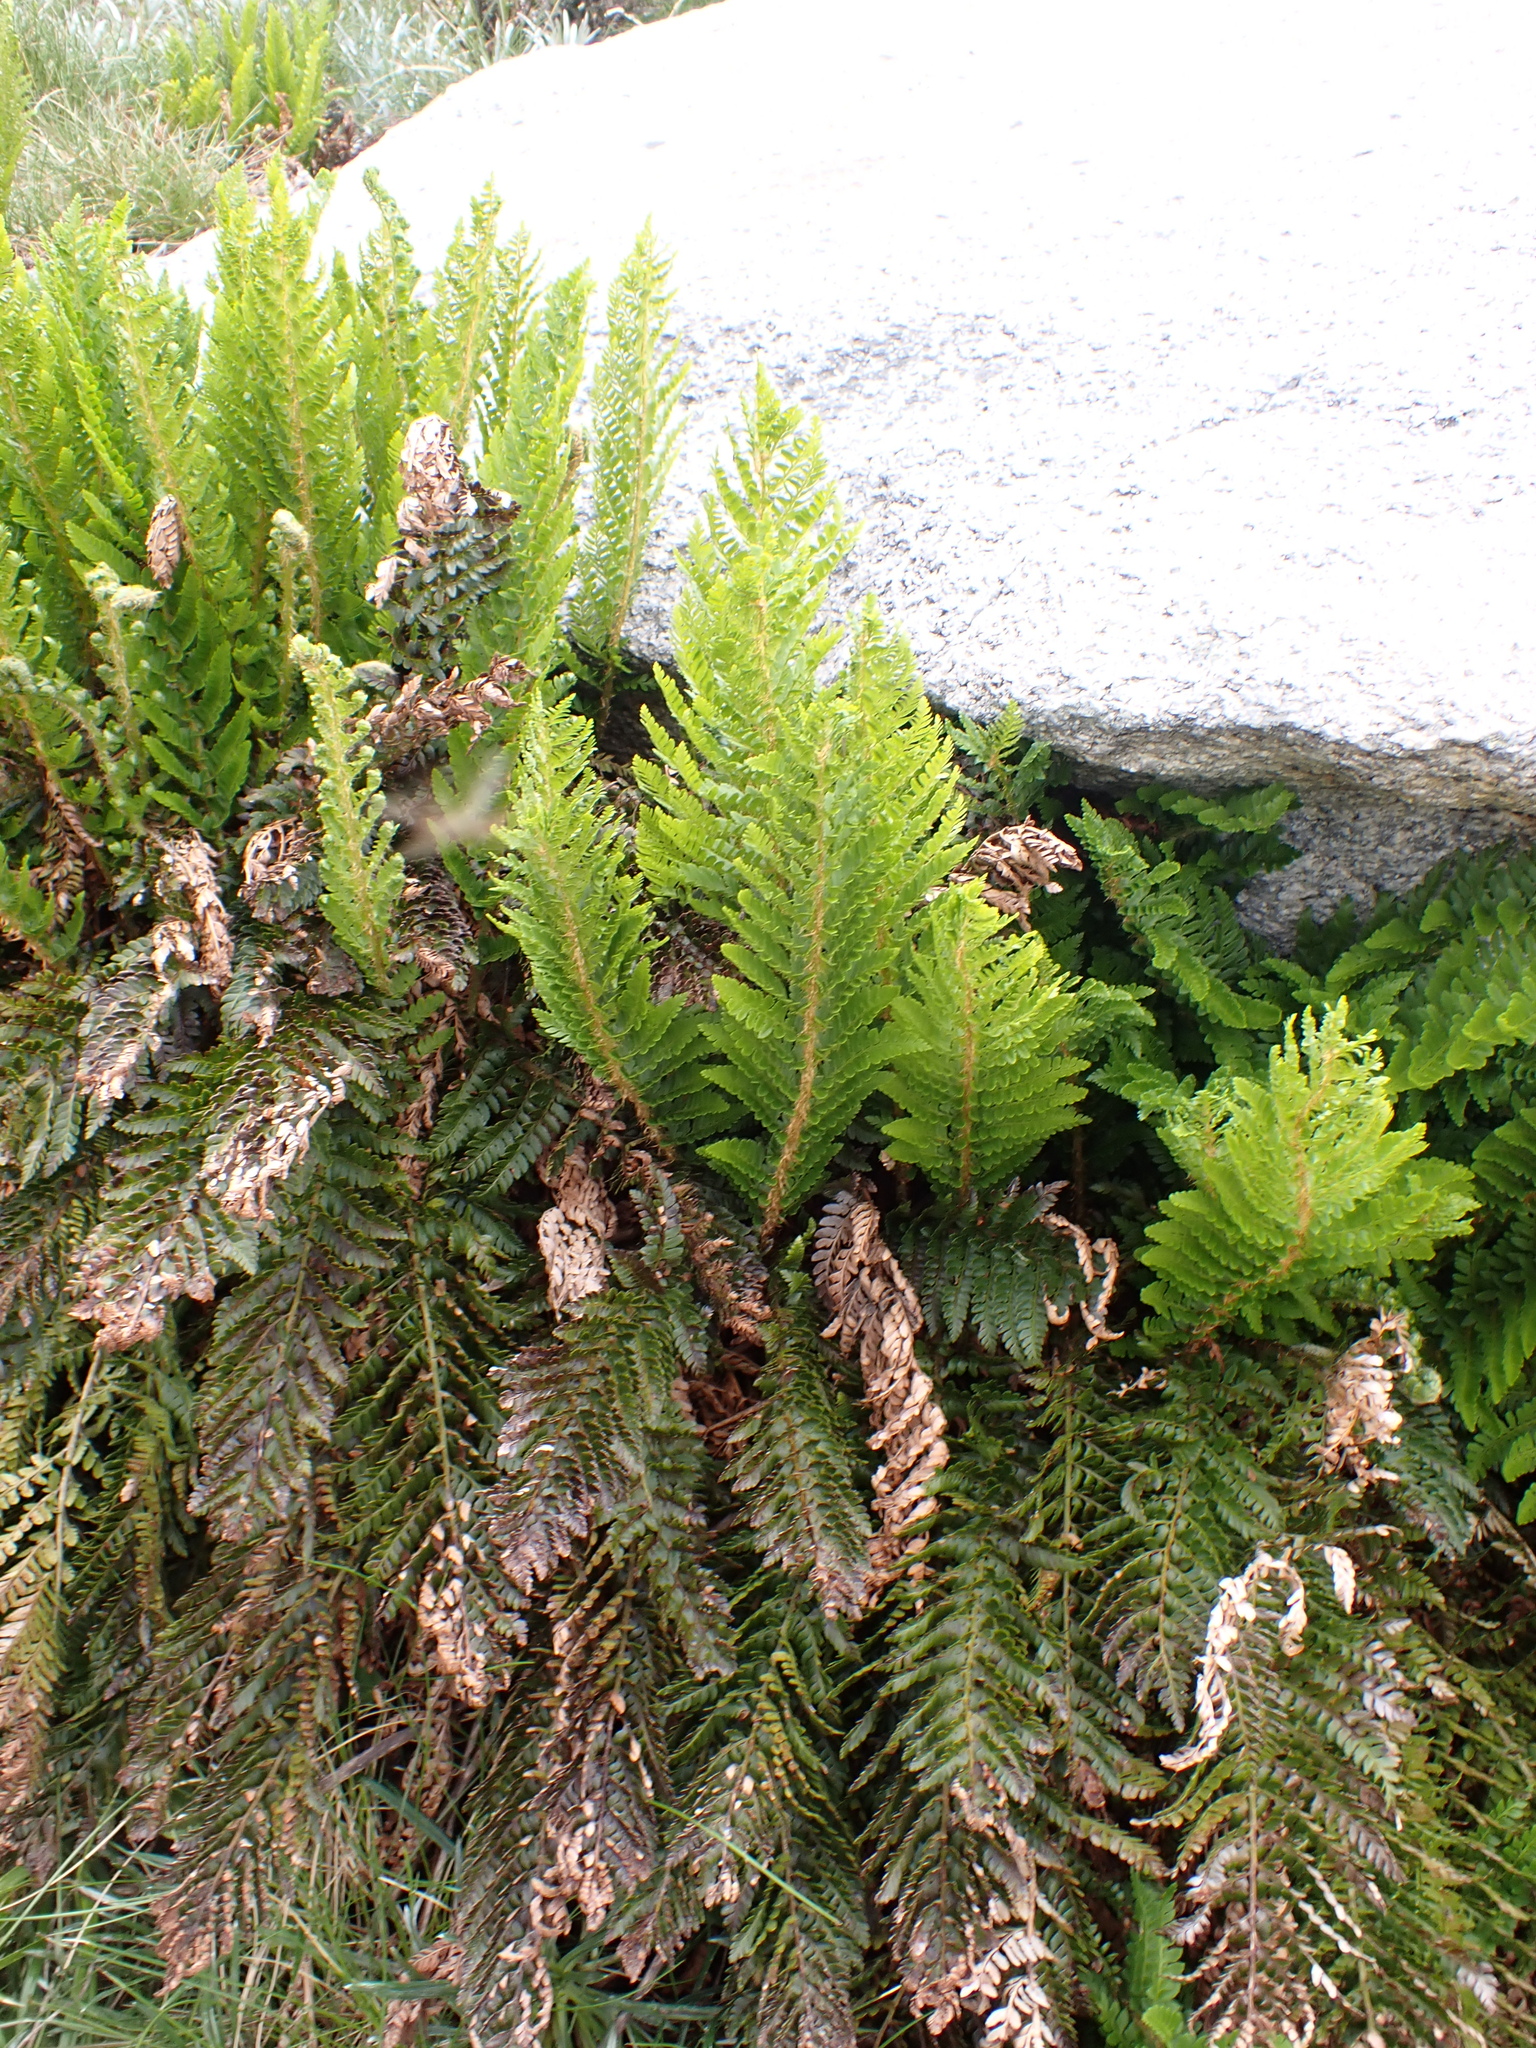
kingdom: Plantae
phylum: Tracheophyta
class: Polypodiopsida
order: Polypodiales
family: Dryopteridaceae
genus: Polystichum
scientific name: Polystichum proliferum
